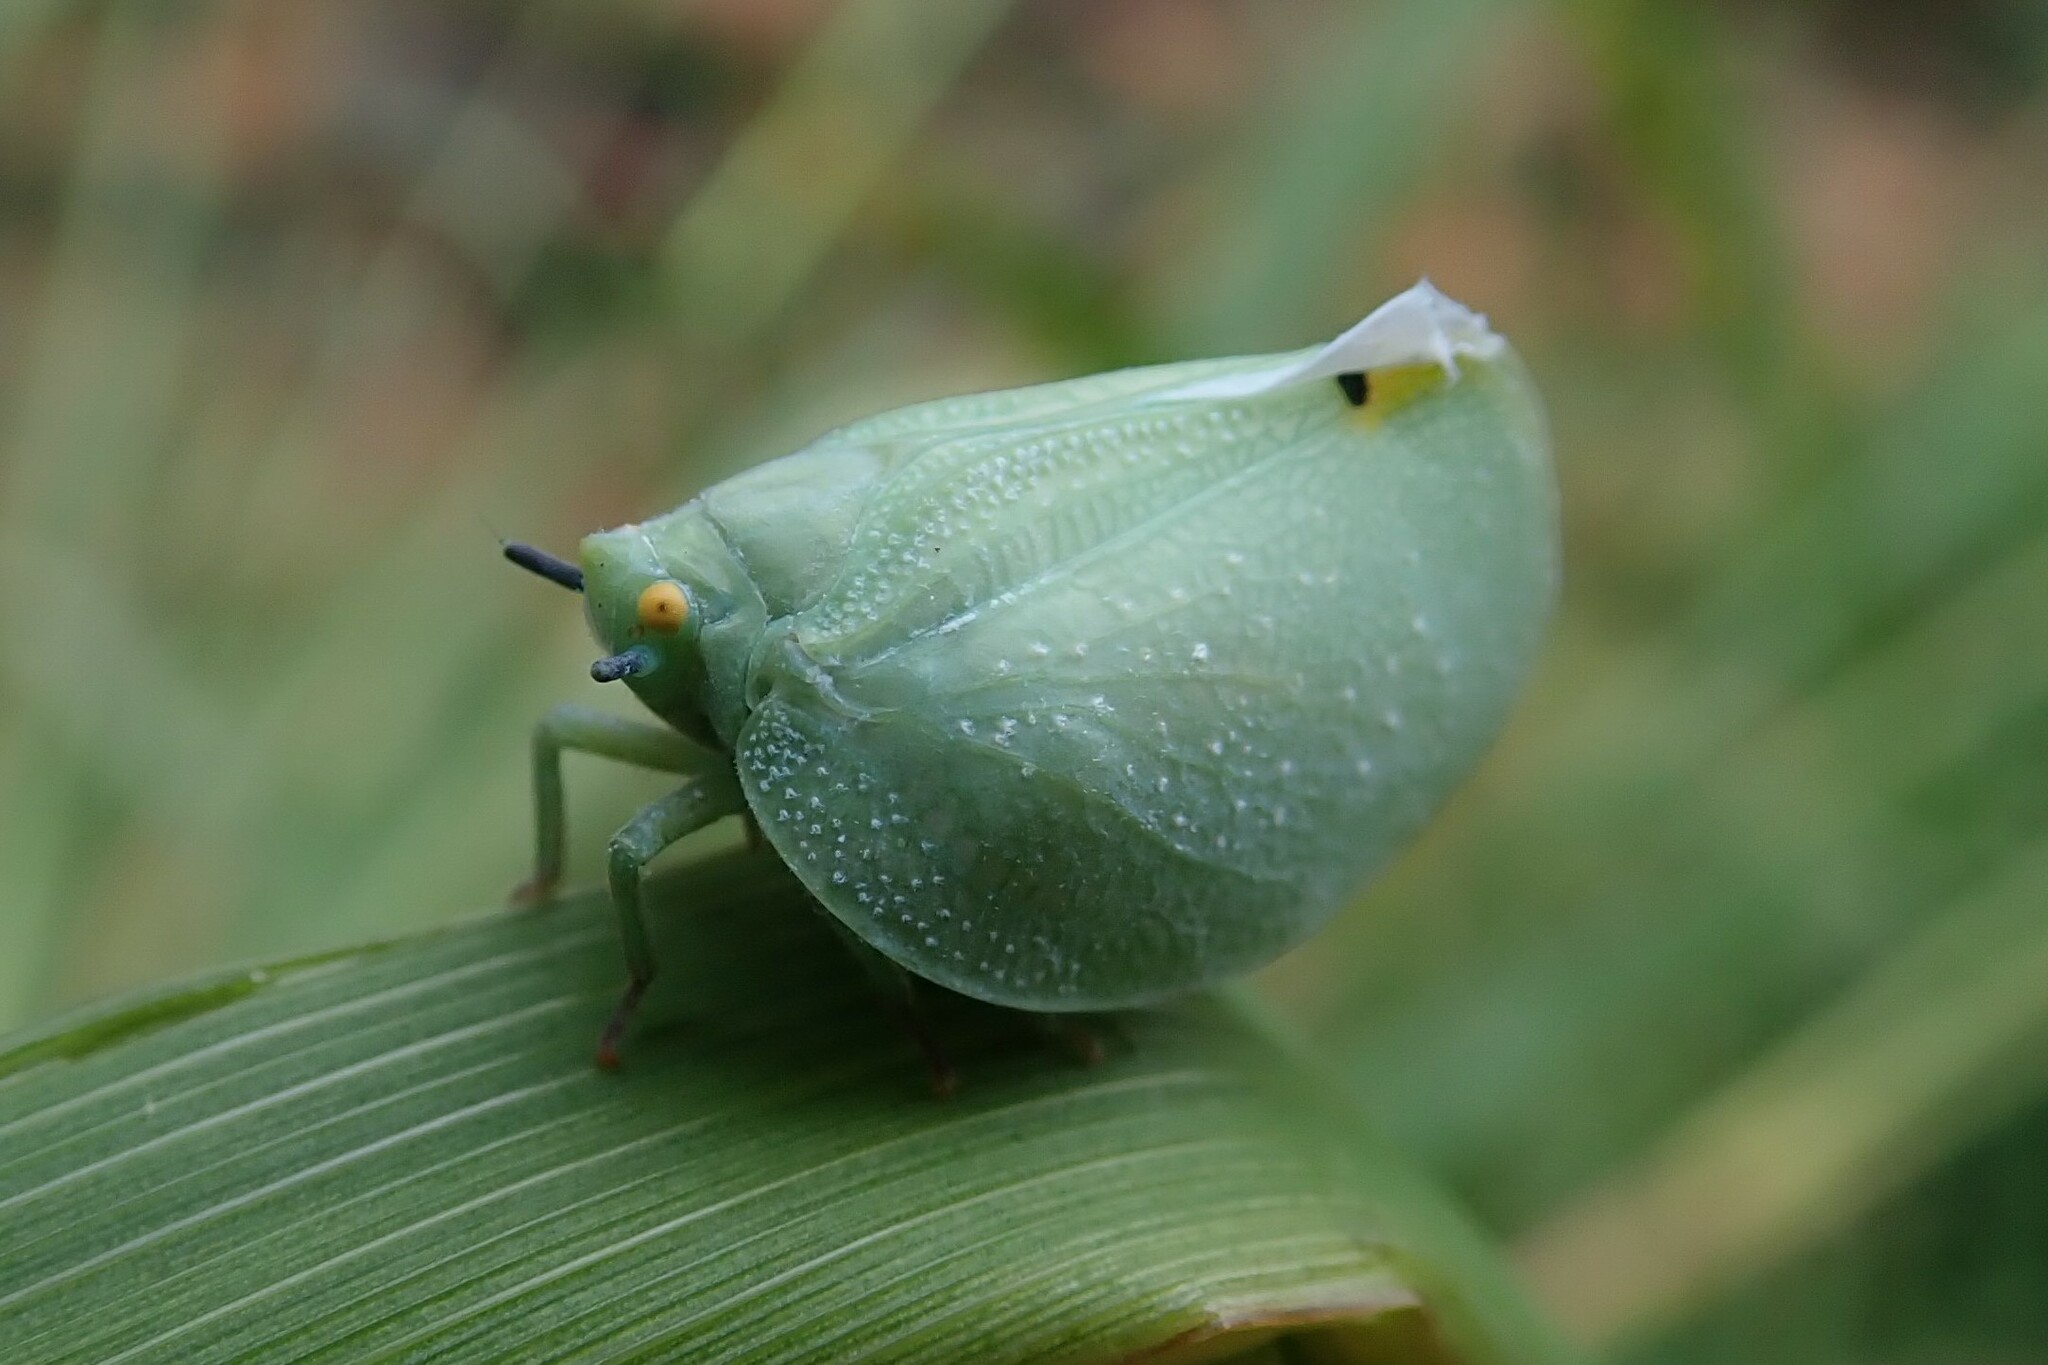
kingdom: Animalia
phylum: Arthropoda
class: Insecta
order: Hemiptera
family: Flatidae
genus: Dalapax
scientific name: Dalapax postica
